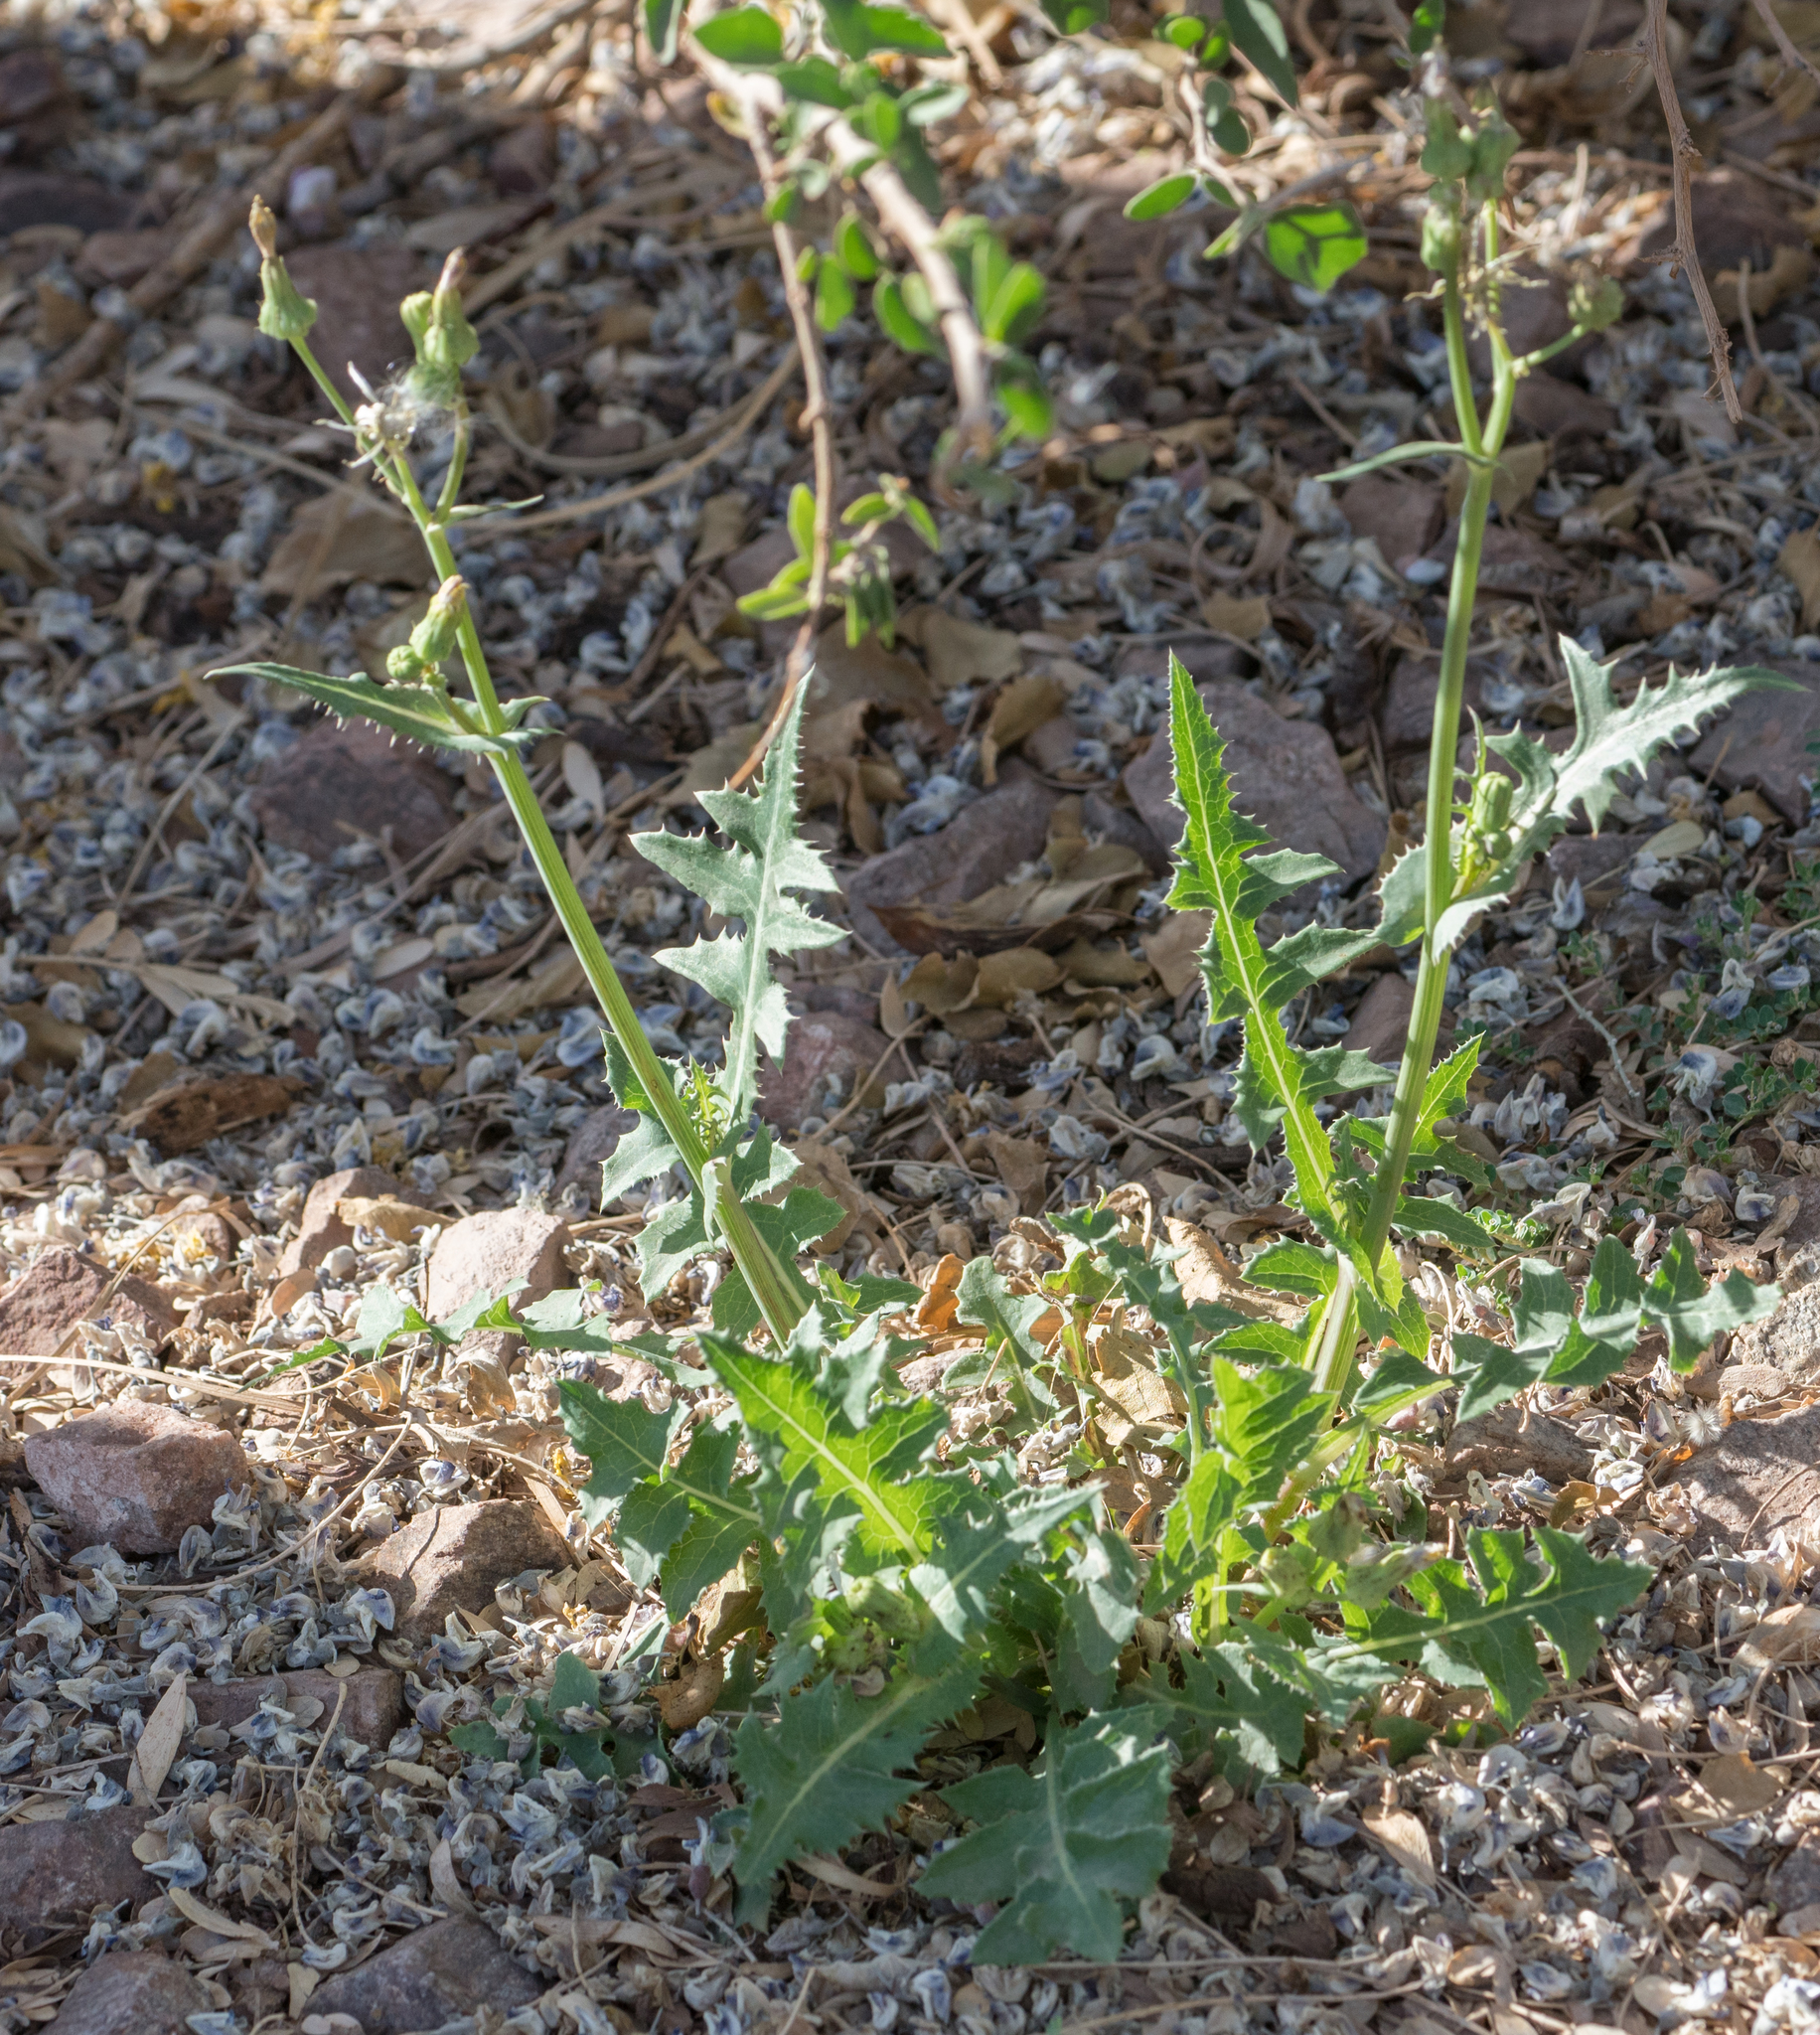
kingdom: Plantae
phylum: Tracheophyta
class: Magnoliopsida
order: Asterales
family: Asteraceae
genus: Sonchus
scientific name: Sonchus asper
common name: Prickly sow-thistle
